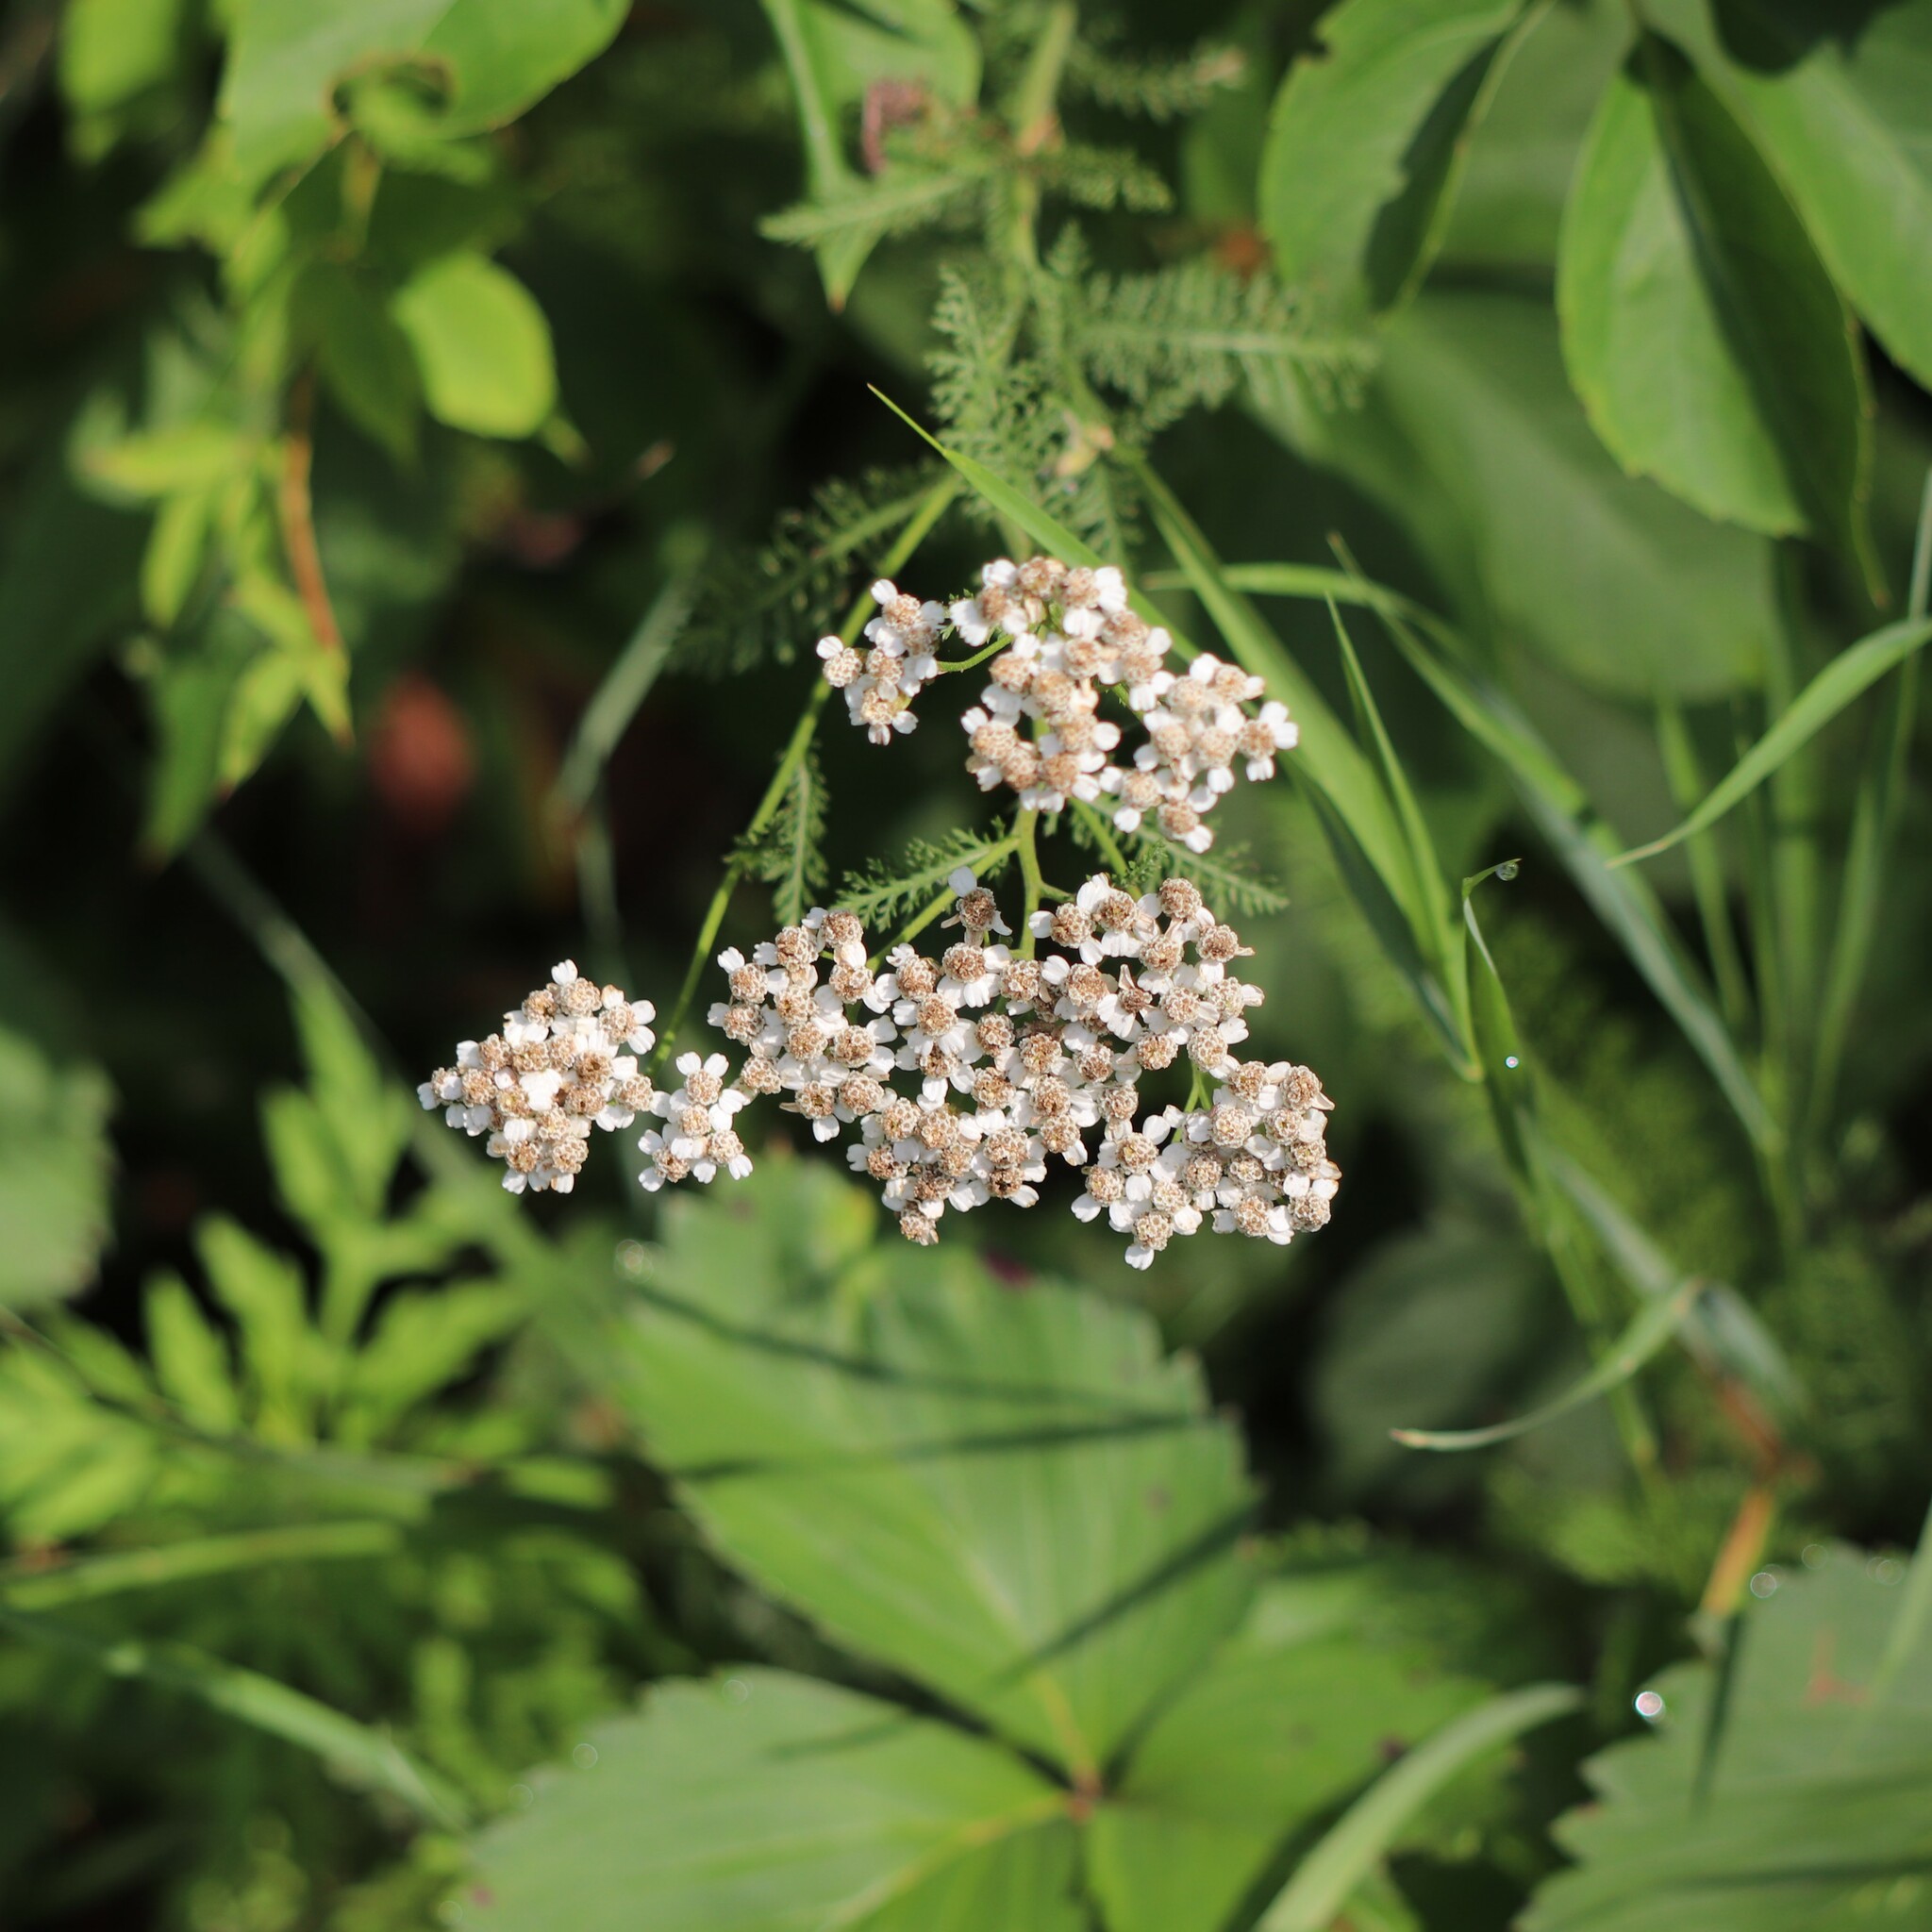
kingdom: Plantae
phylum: Tracheophyta
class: Magnoliopsida
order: Asterales
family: Asteraceae
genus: Achillea
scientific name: Achillea millefolium
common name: Yarrow
